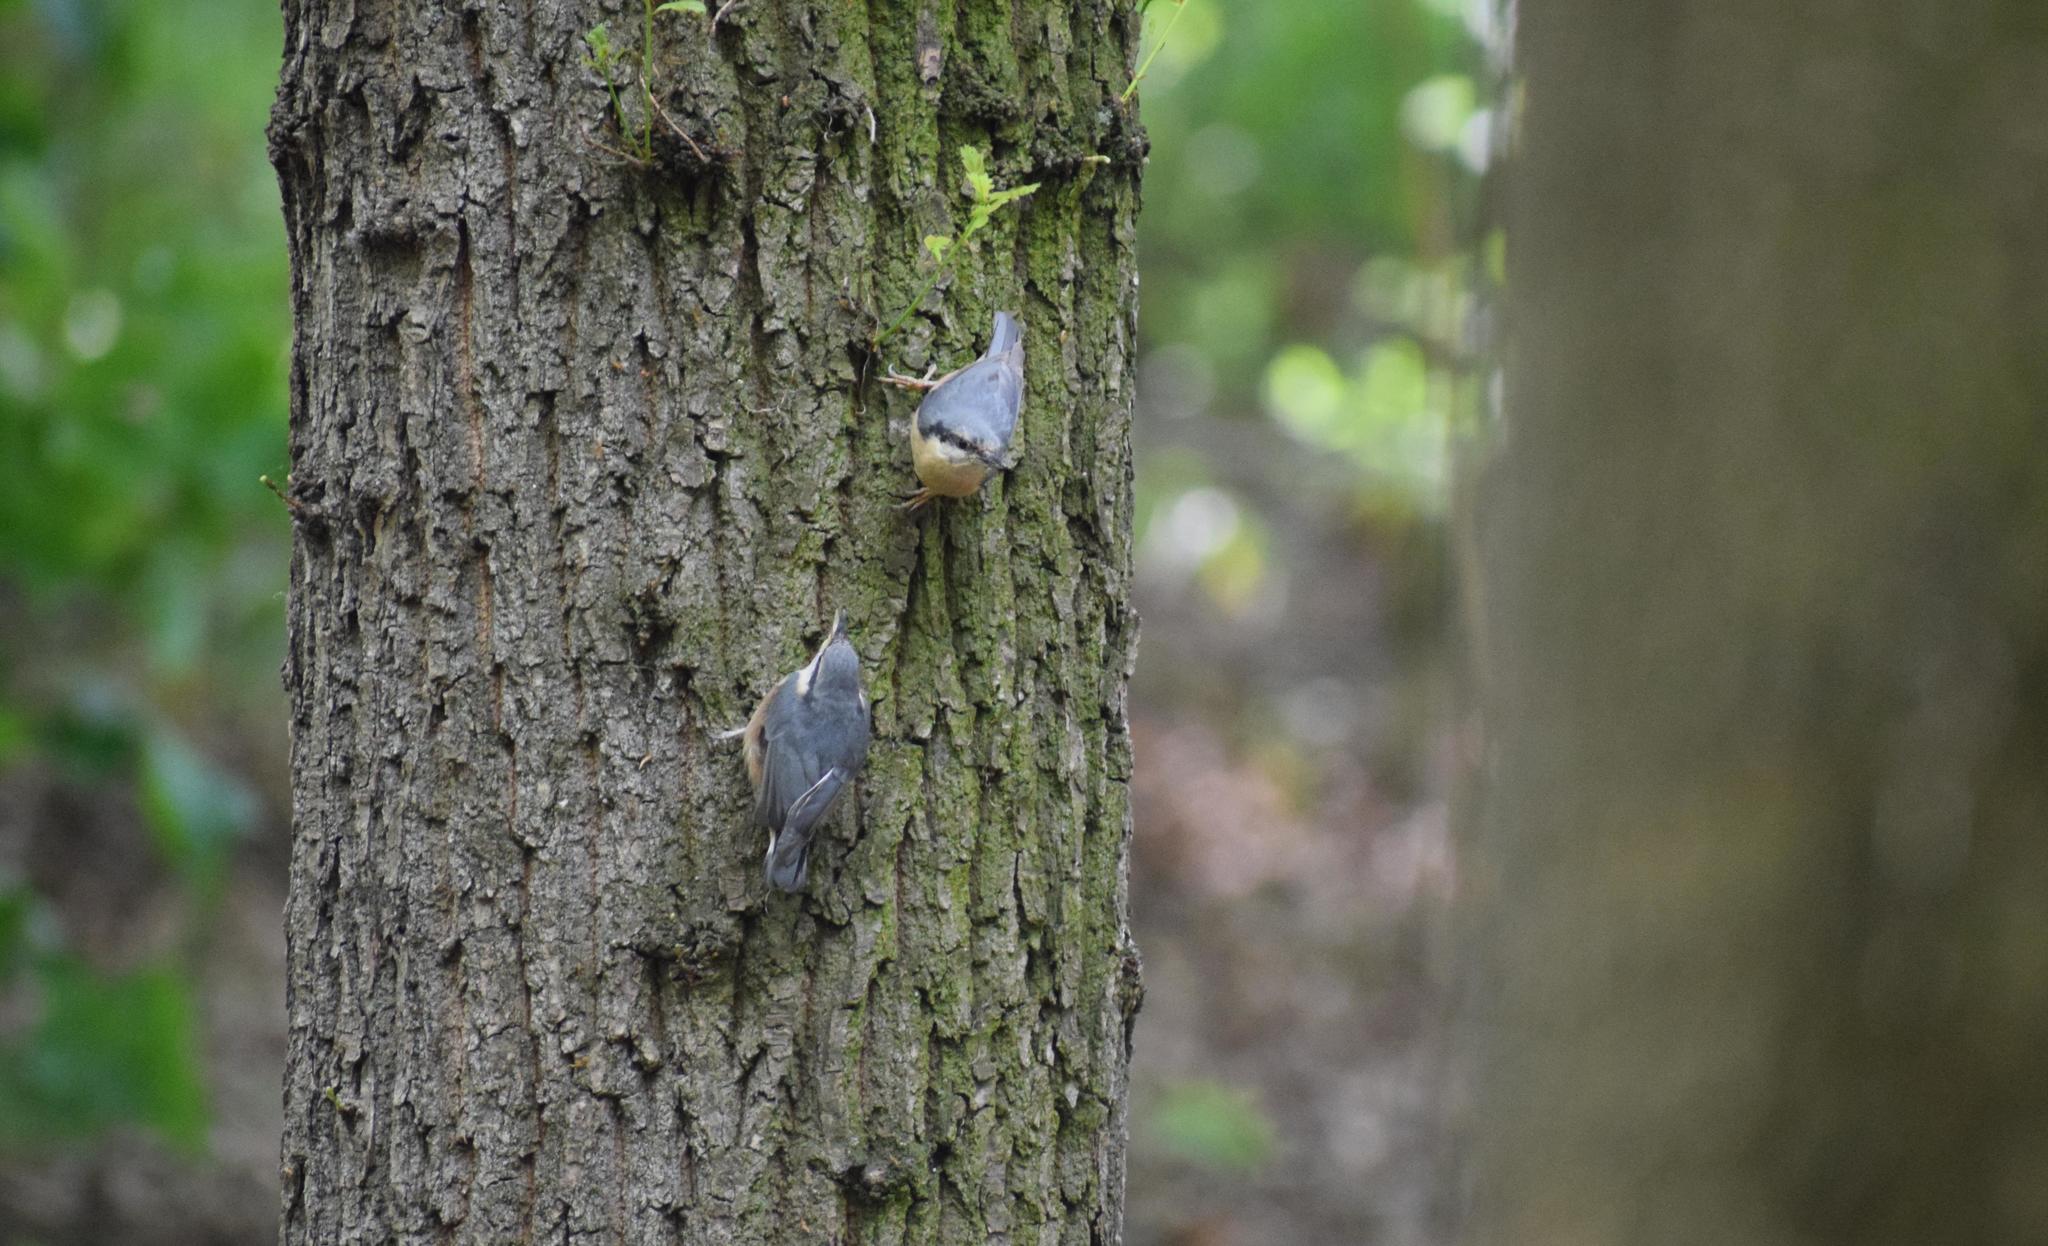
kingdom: Animalia
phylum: Chordata
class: Aves
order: Passeriformes
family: Sittidae
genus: Sitta
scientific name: Sitta europaea
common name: Eurasian nuthatch
